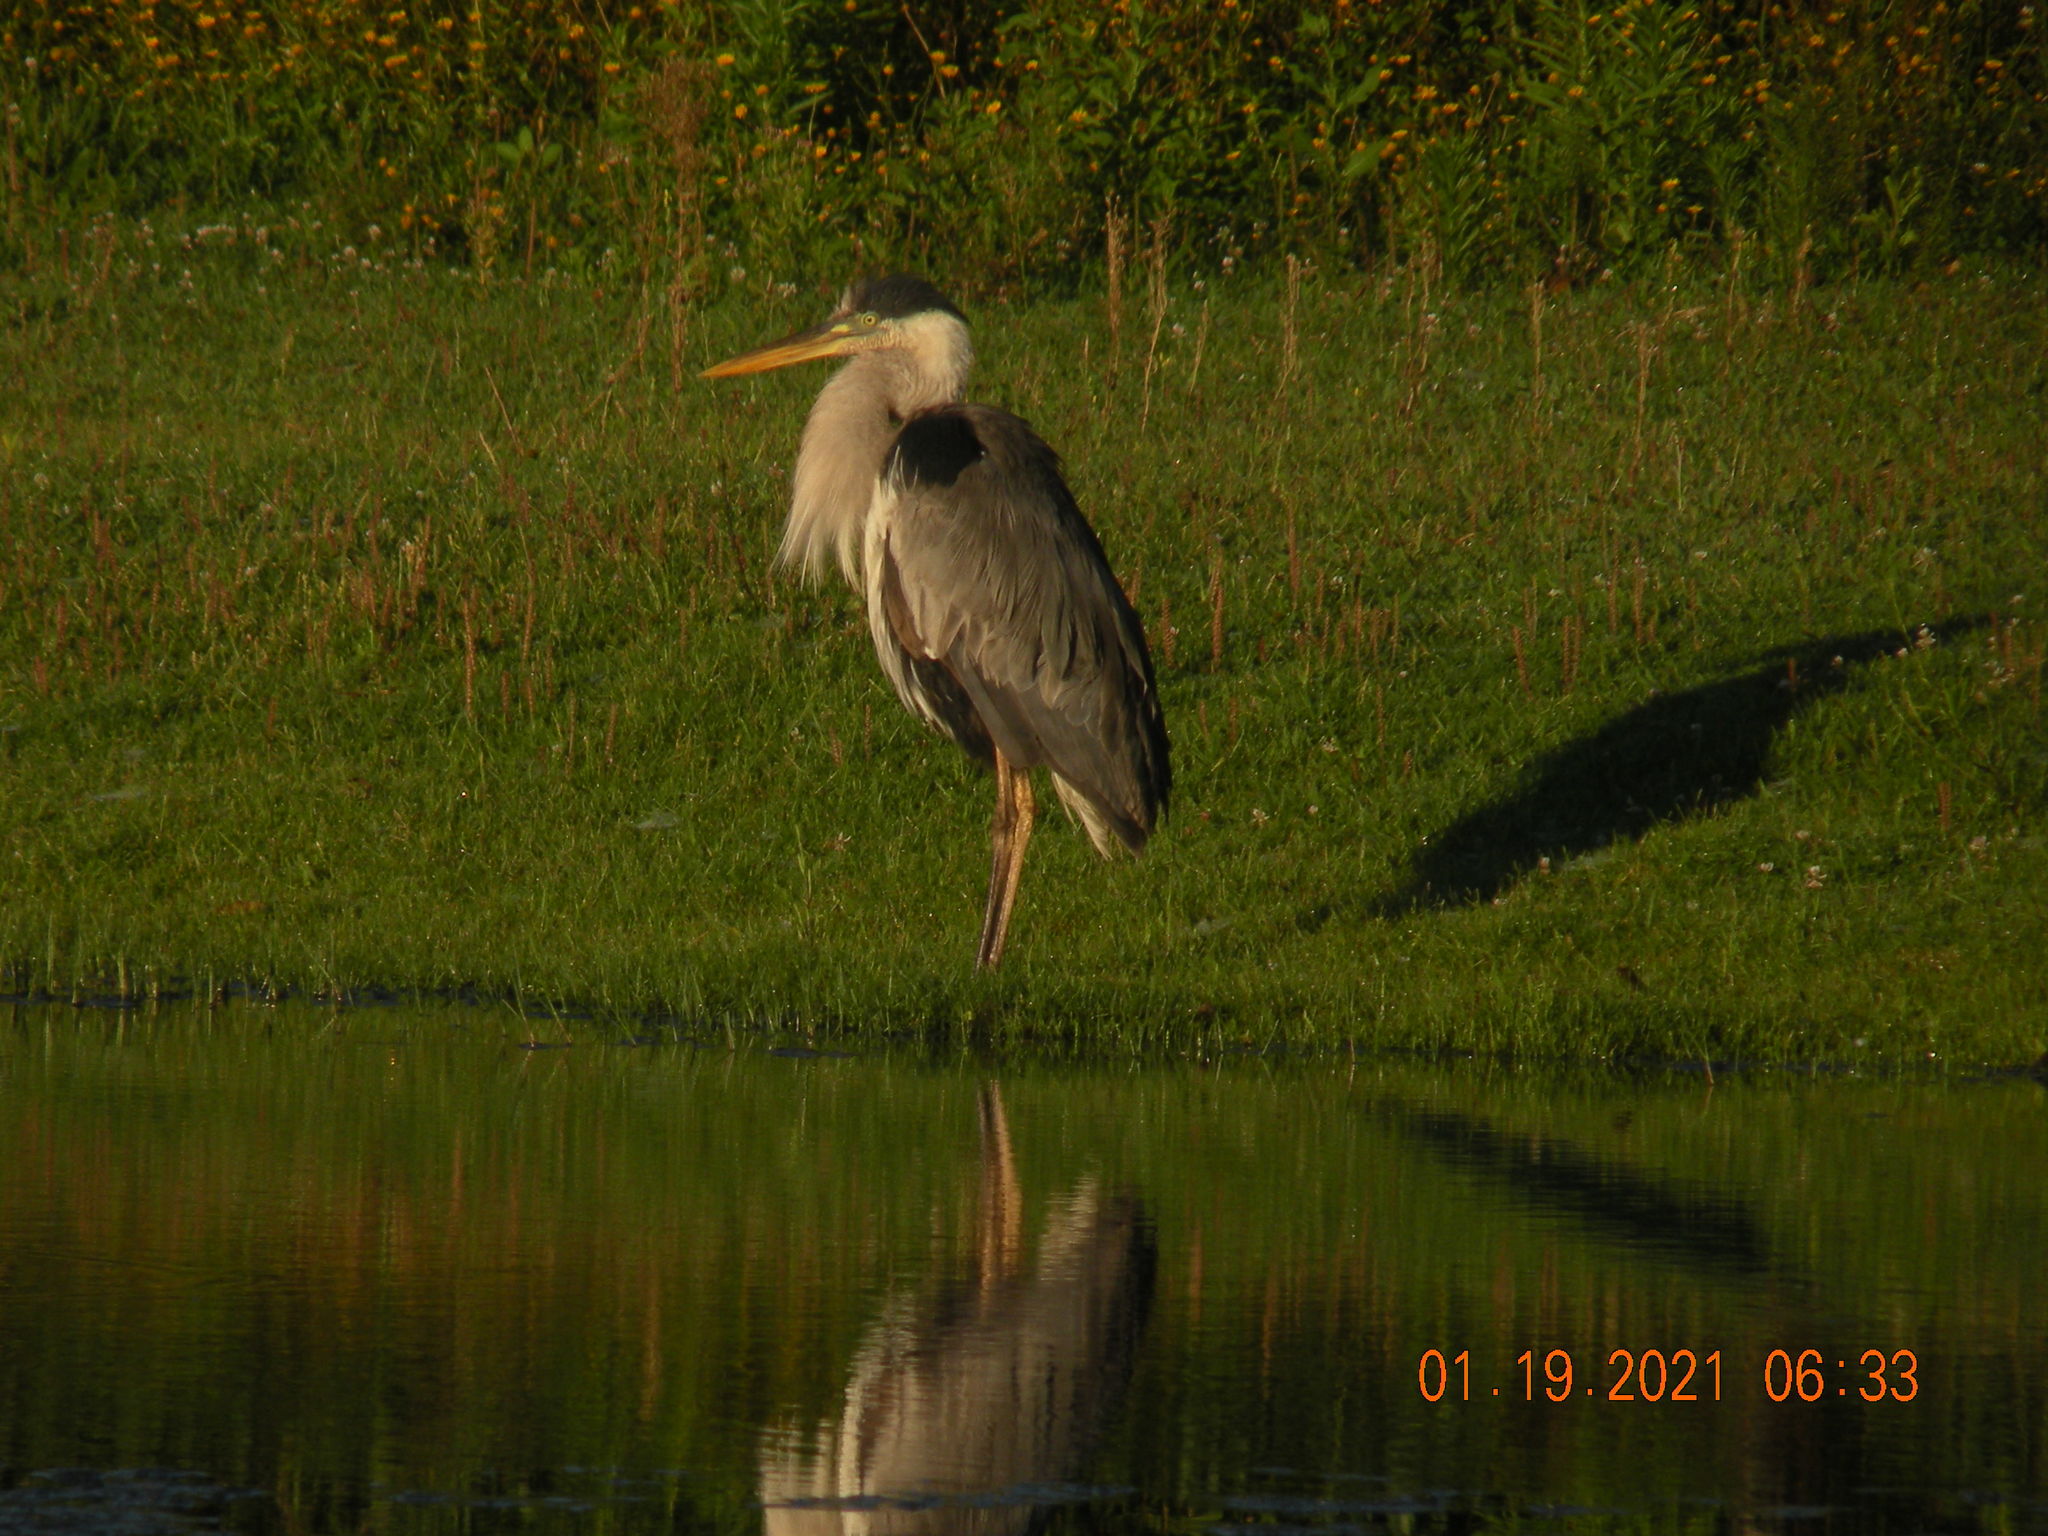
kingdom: Animalia
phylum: Chordata
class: Aves
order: Pelecaniformes
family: Ardeidae
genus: Ardea
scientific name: Ardea cocoi
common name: Cocoi heron
